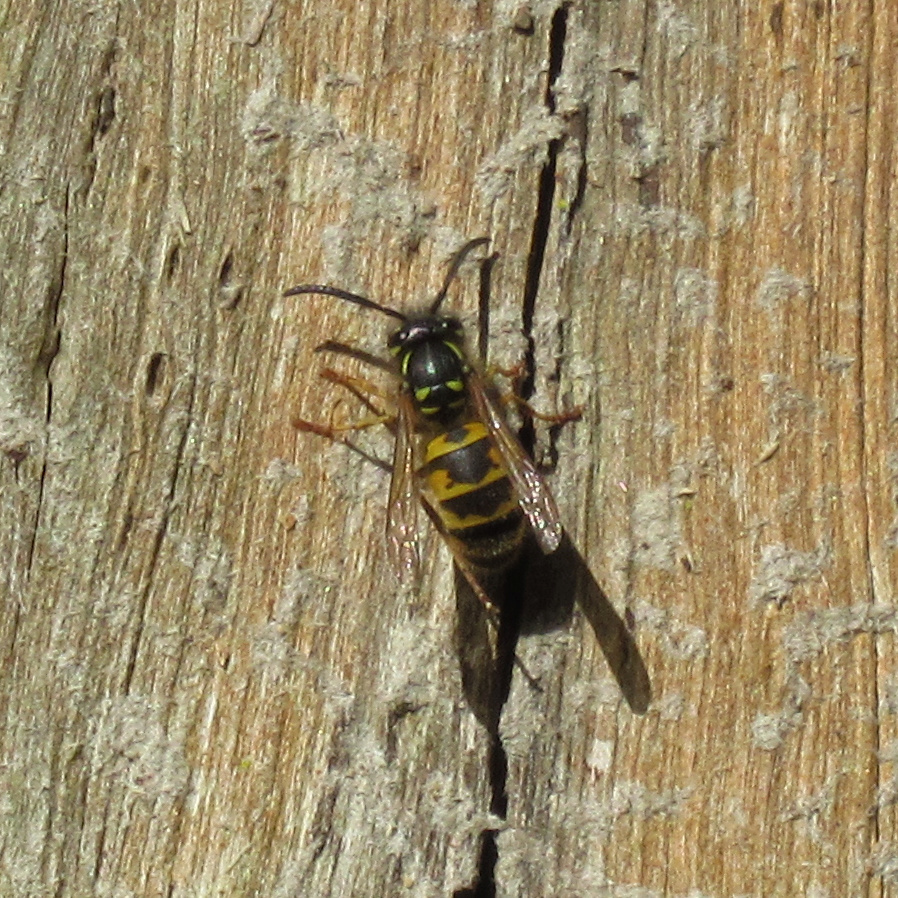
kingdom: Animalia
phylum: Arthropoda
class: Insecta
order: Hymenoptera
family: Vespidae
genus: Vespula
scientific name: Vespula vulgaris
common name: Common wasp
